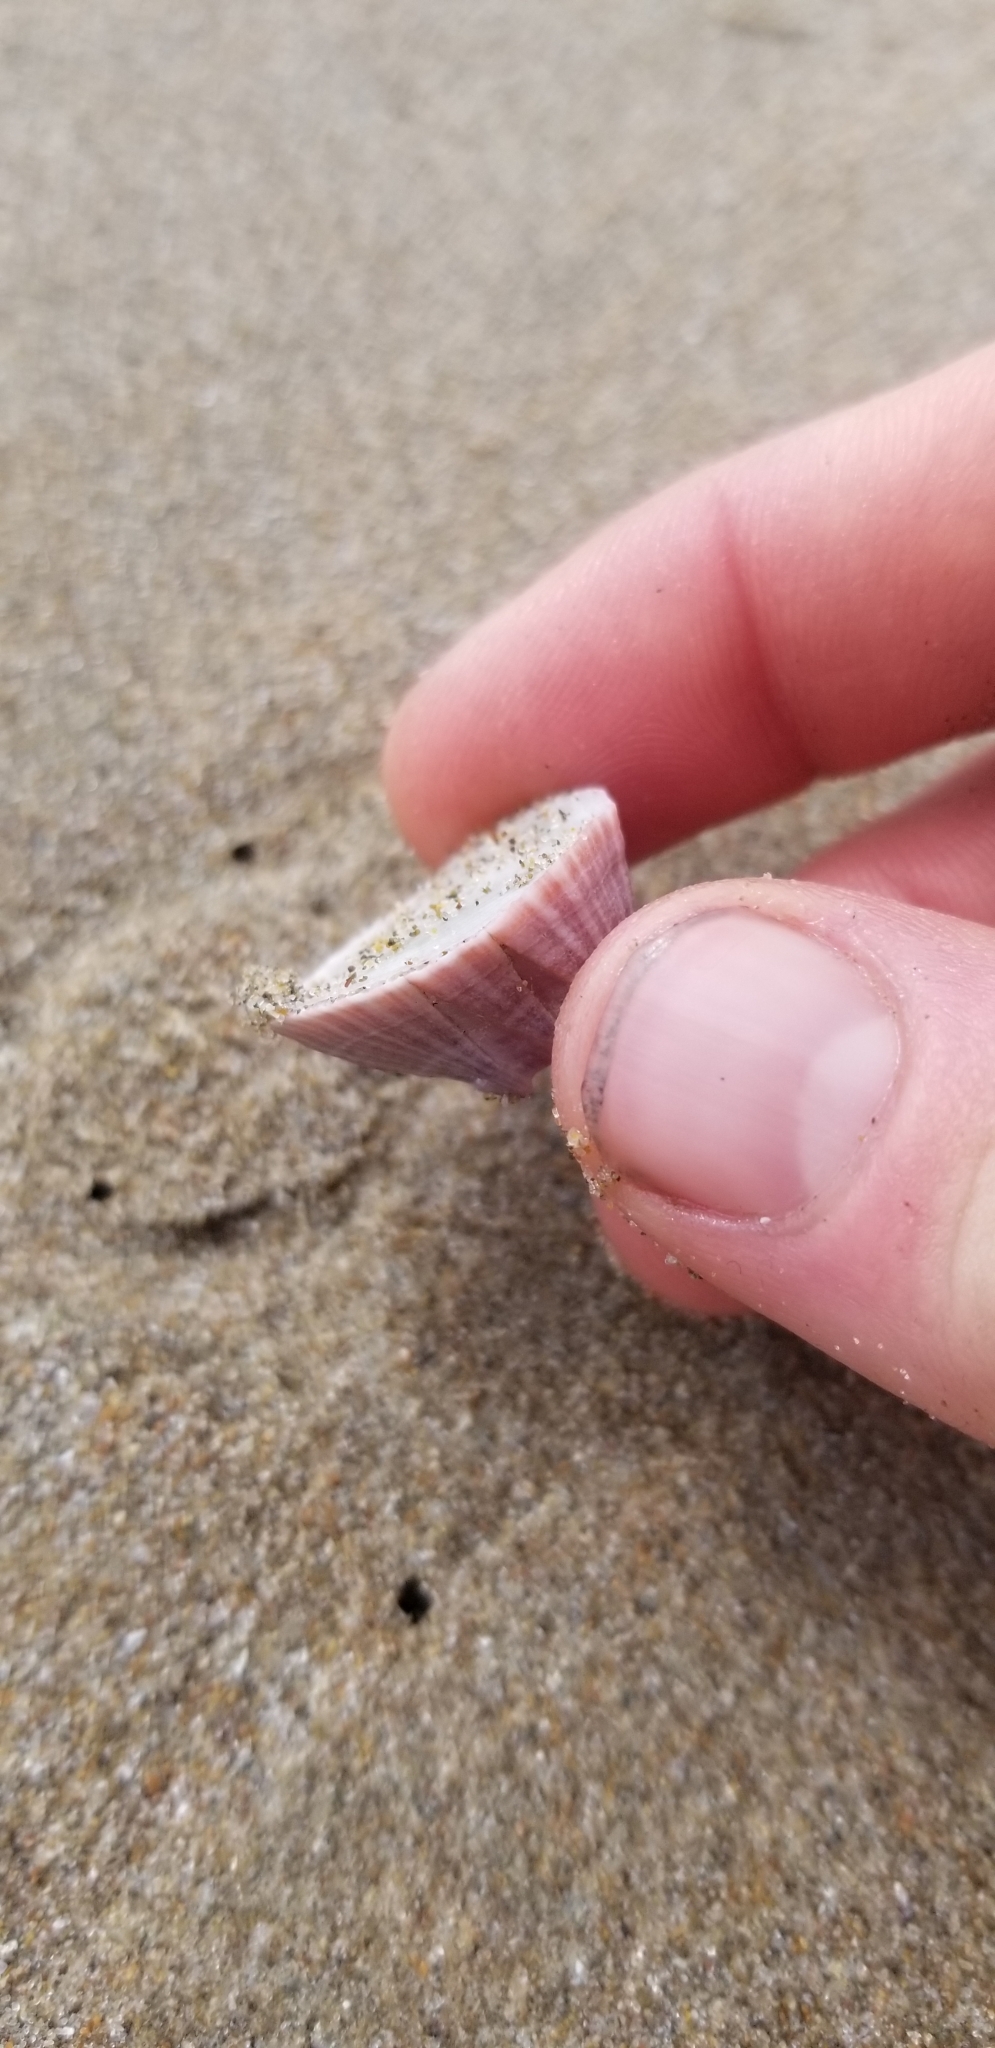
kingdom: Animalia
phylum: Arthropoda
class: Maxillopoda
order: Sessilia
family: Balanidae
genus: Paraconcavus
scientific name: Paraconcavus pacificus
